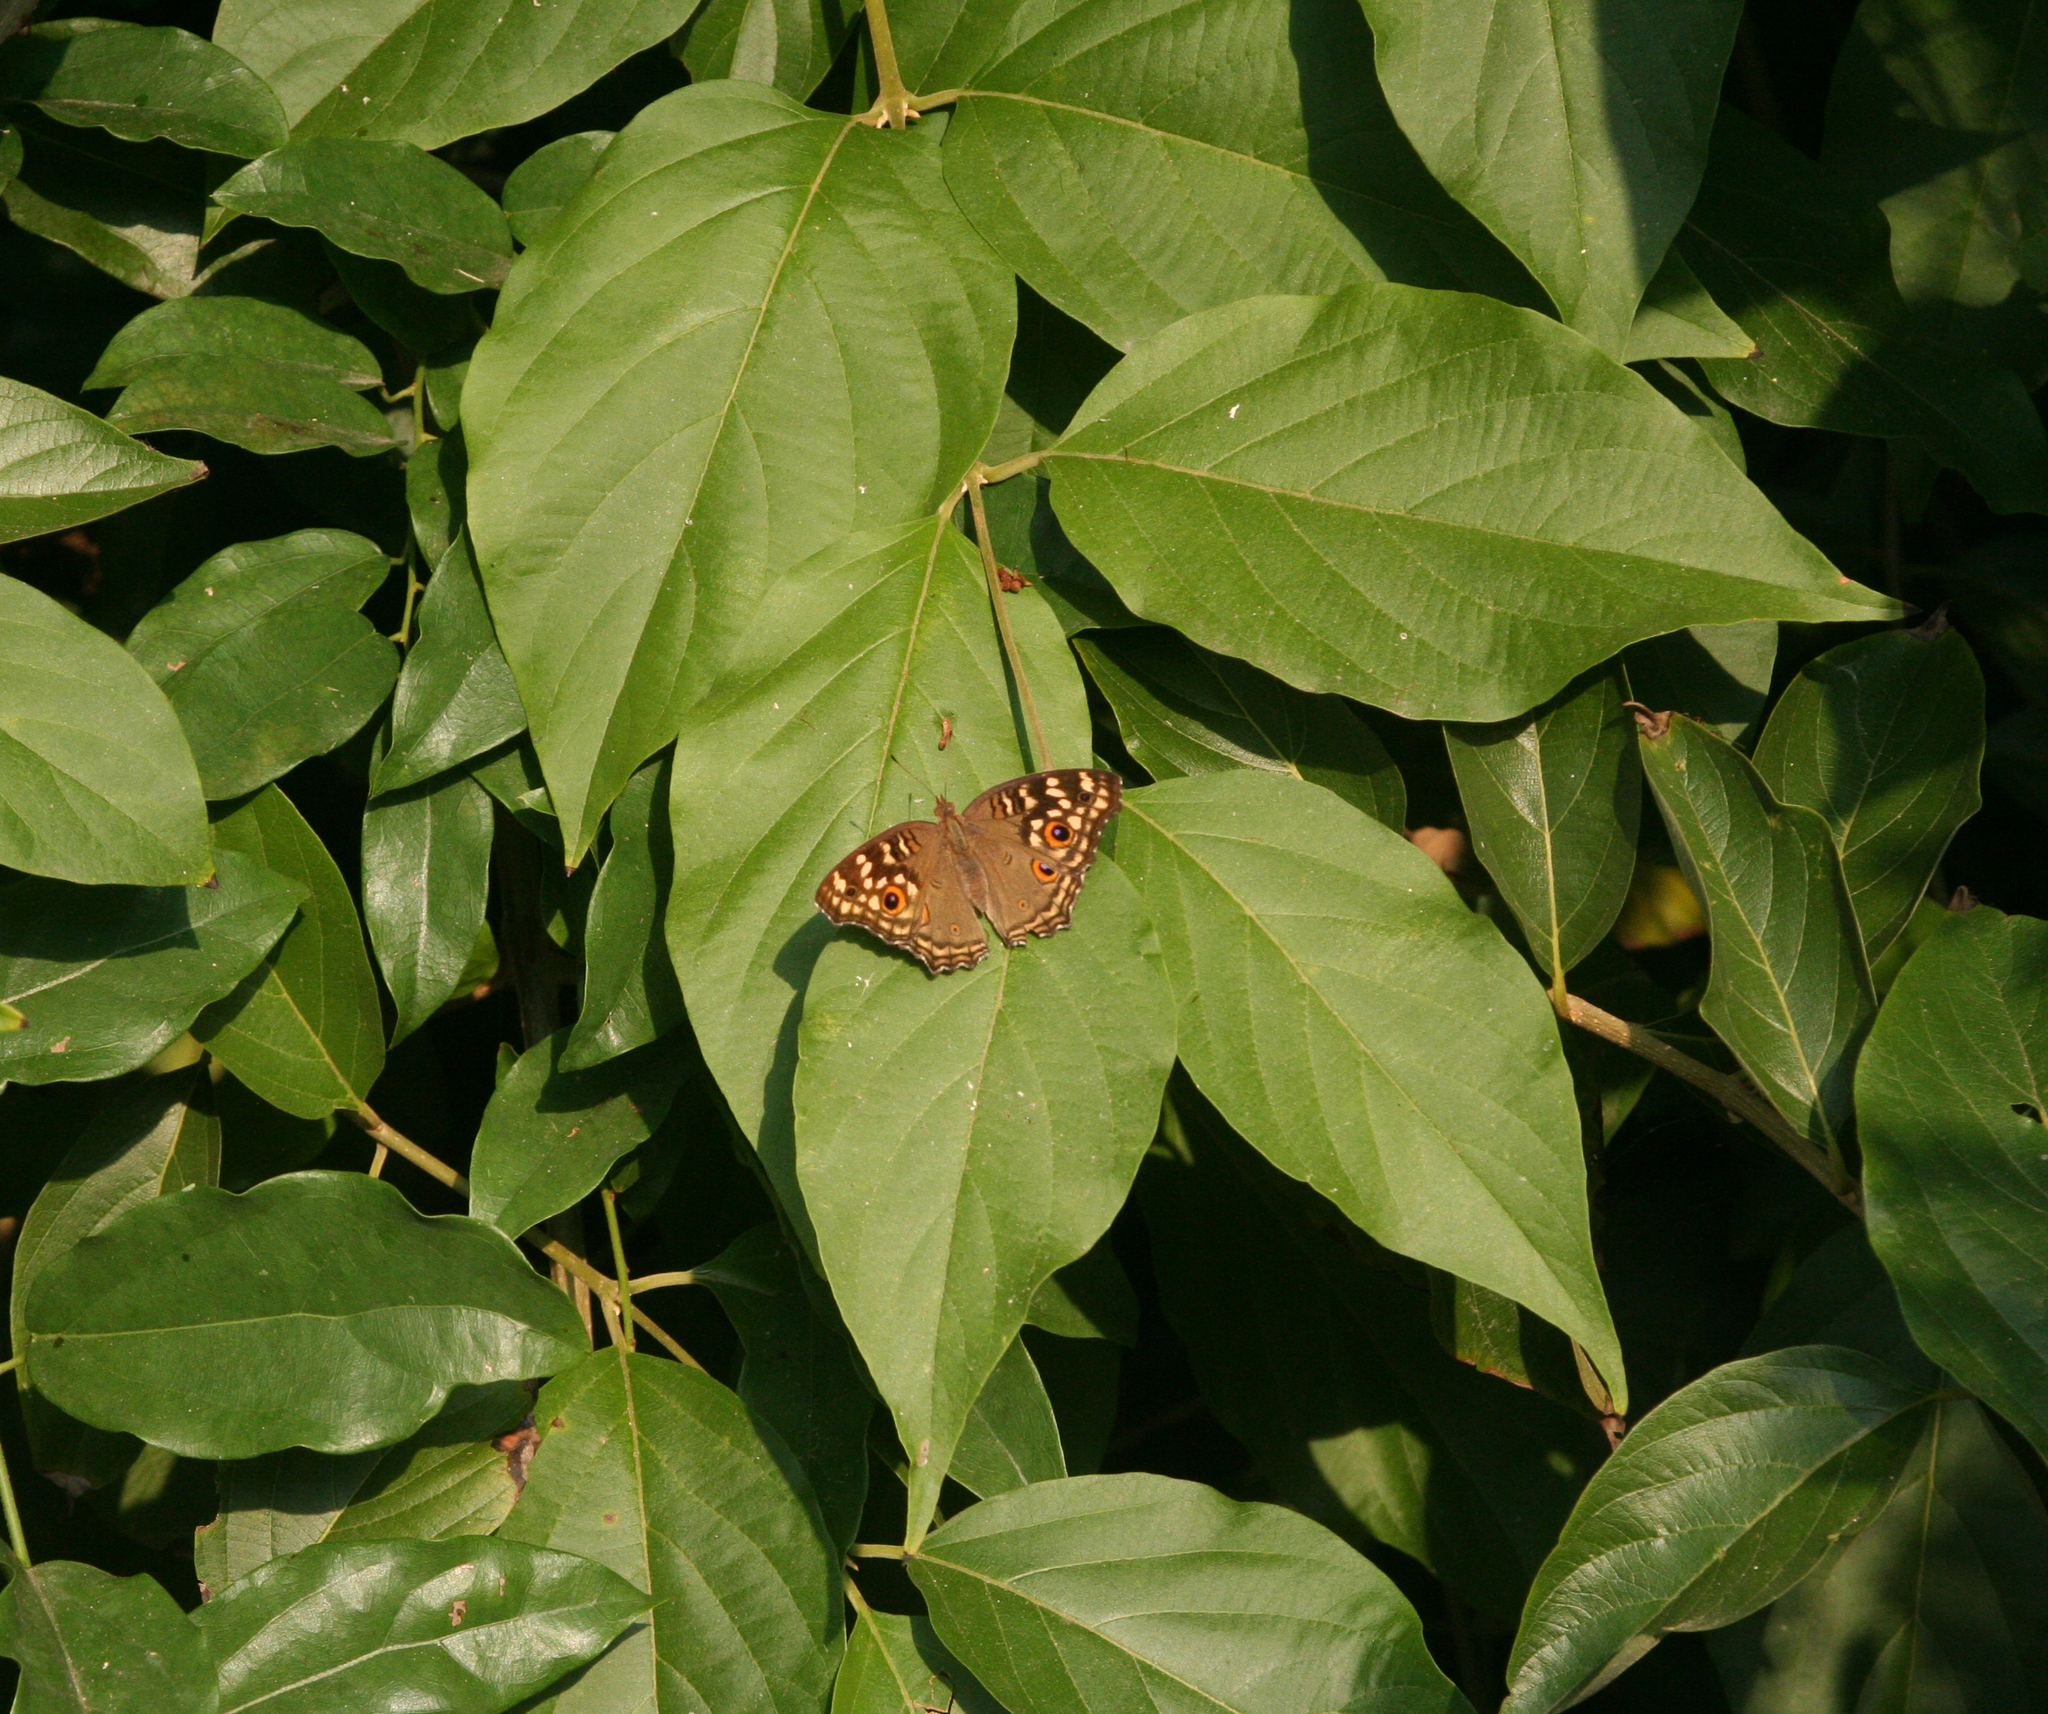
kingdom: Animalia
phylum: Arthropoda
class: Insecta
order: Lepidoptera
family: Nymphalidae
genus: Junonia
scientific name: Junonia lemonias
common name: Lemon pansy
